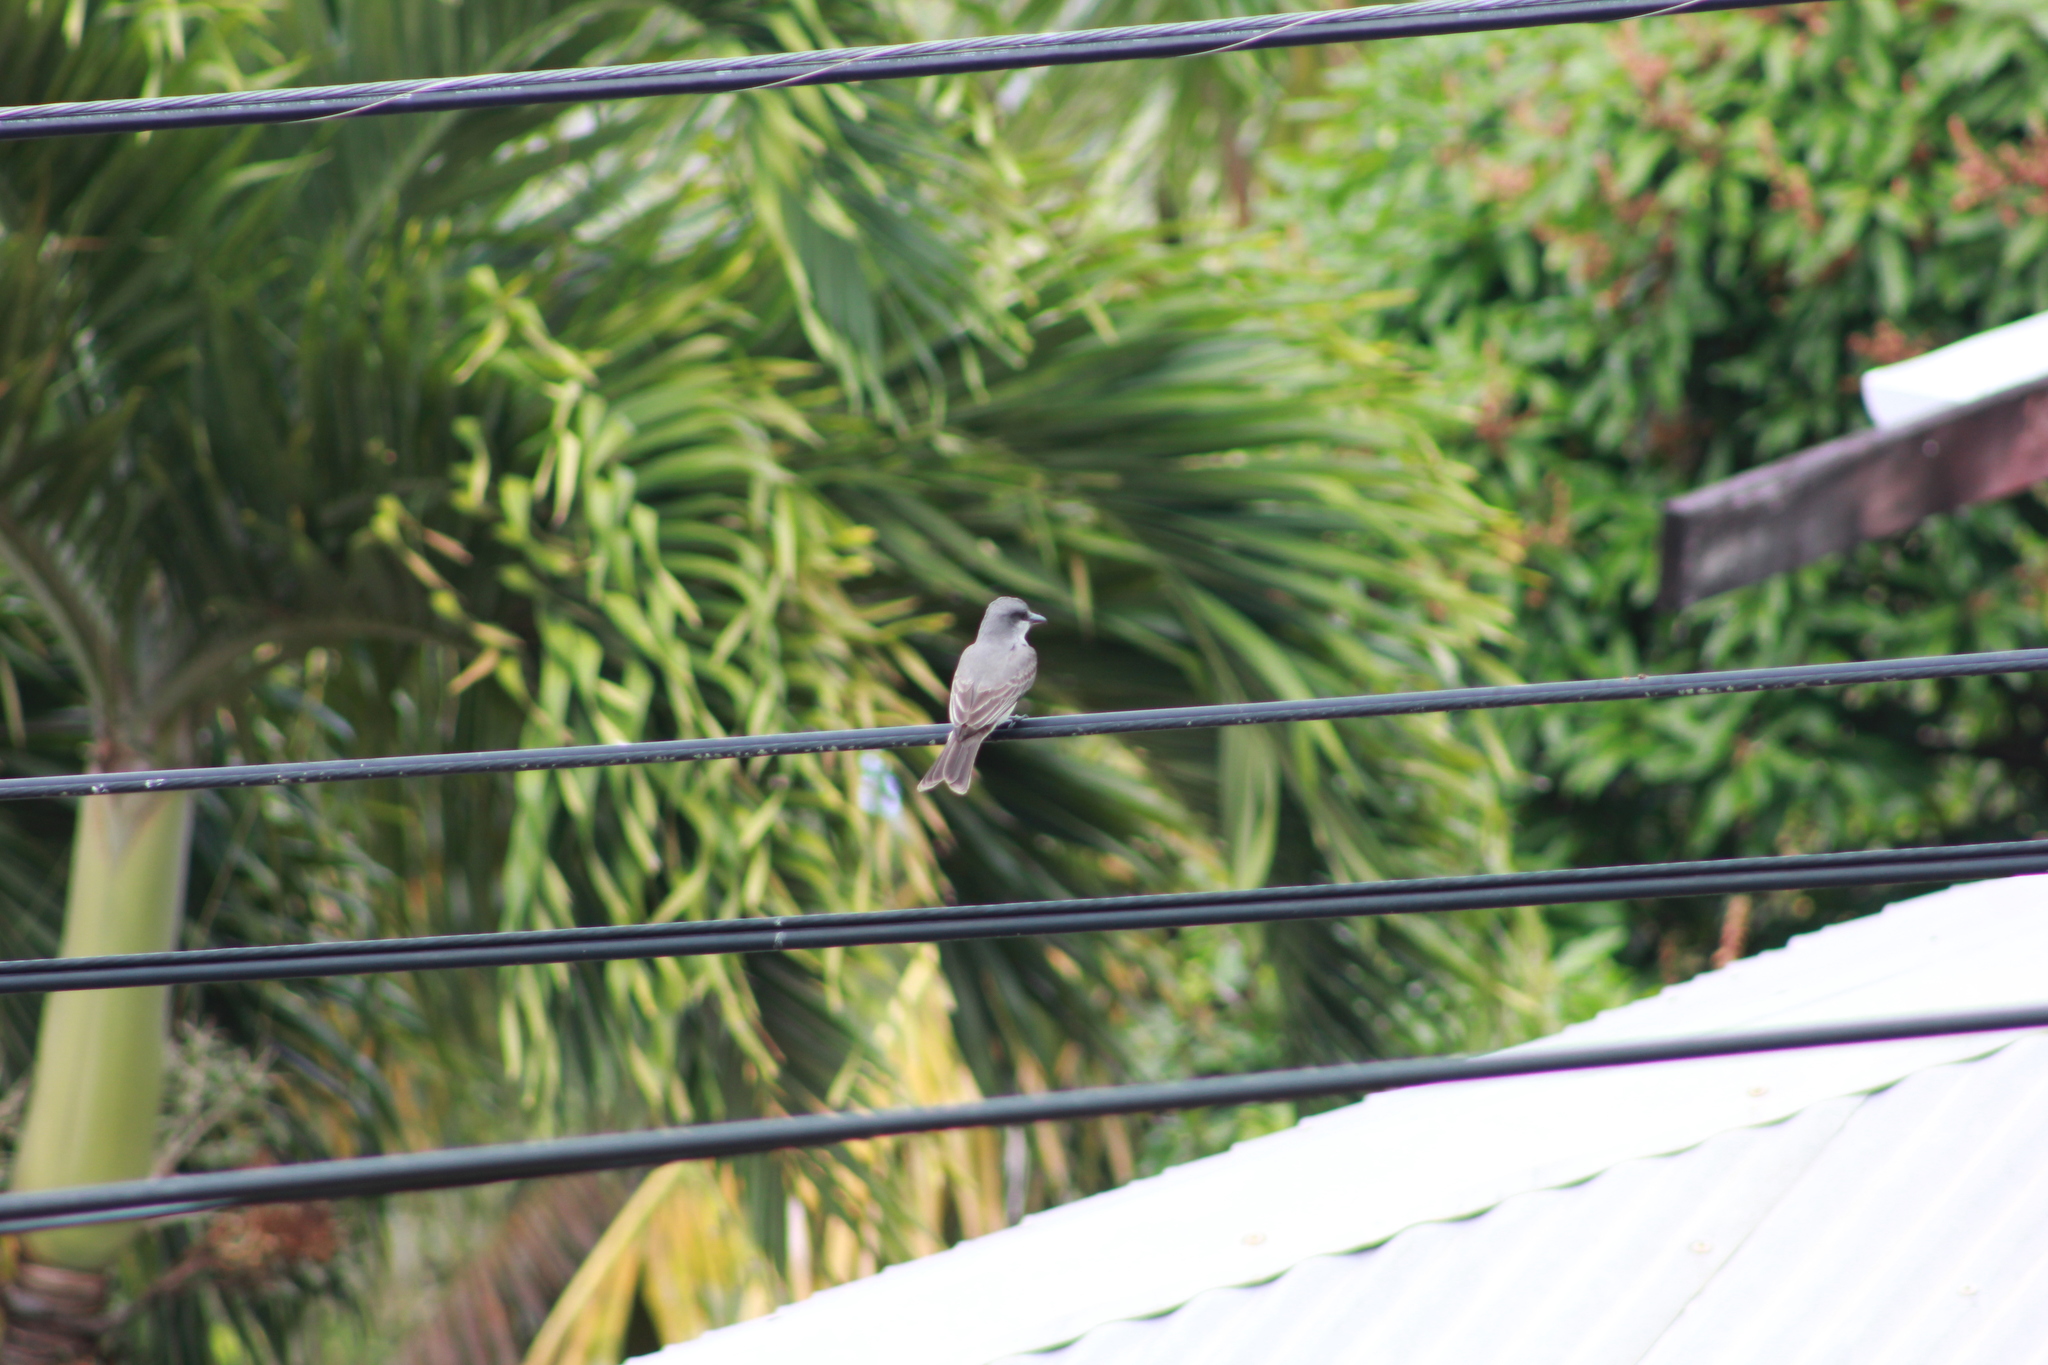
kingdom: Animalia
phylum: Chordata
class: Aves
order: Passeriformes
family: Tyrannidae
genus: Tyrannus
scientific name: Tyrannus dominicensis
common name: Gray kingbird
